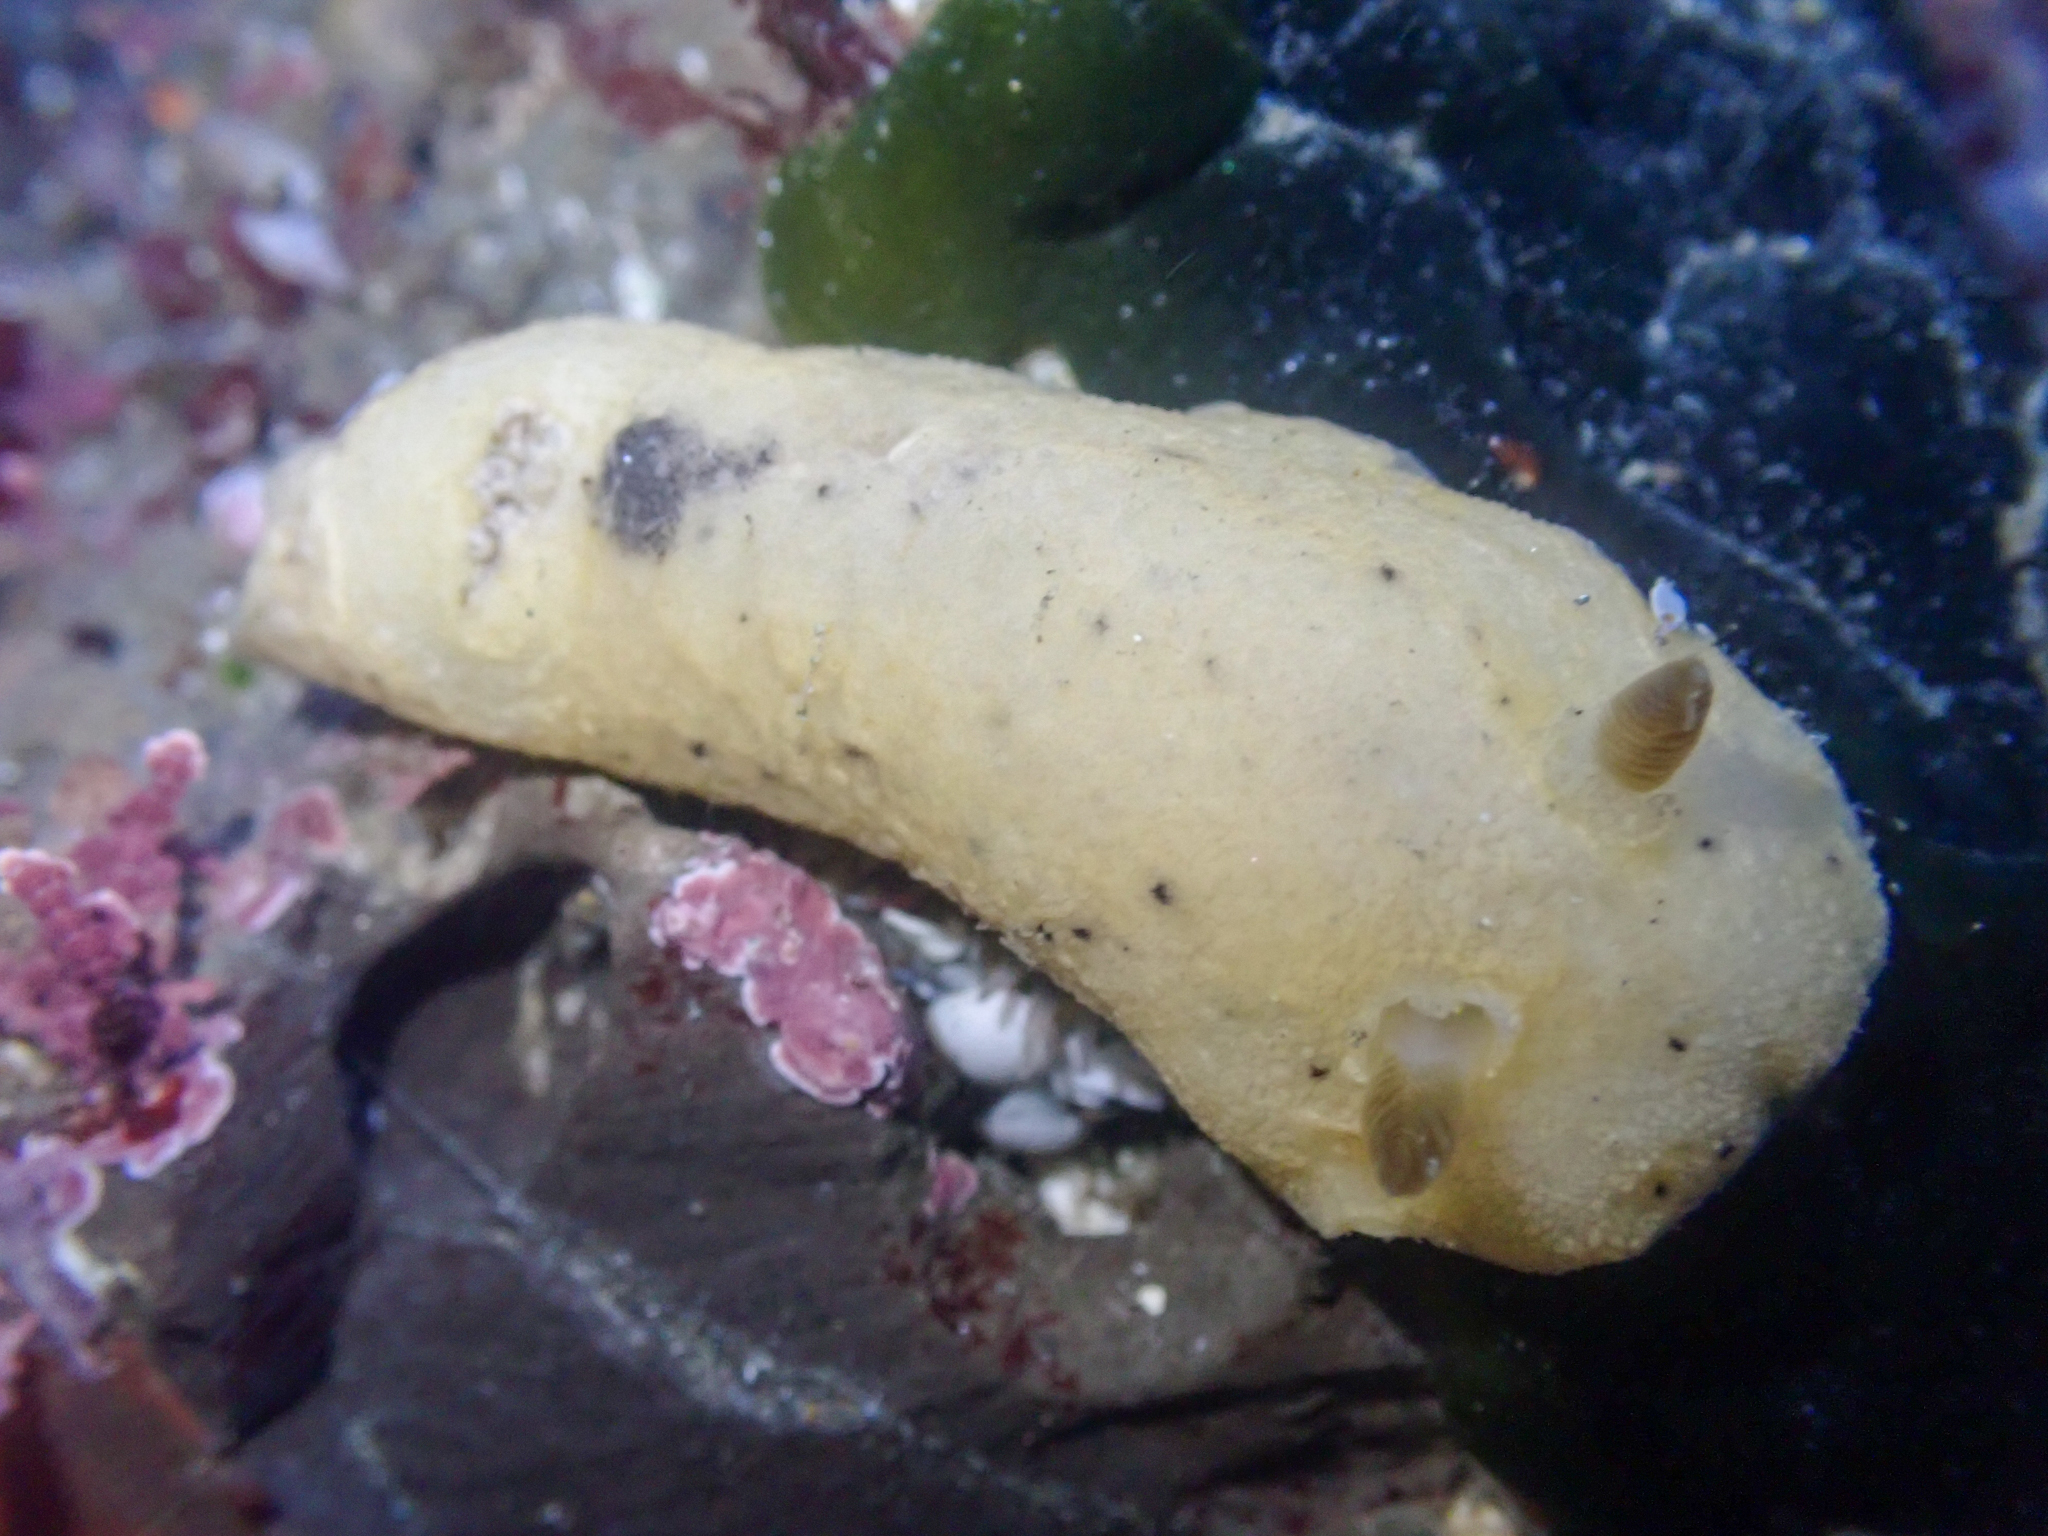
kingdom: Animalia
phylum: Mollusca
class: Gastropoda
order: Nudibranchia
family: Discodorididae
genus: Geitodoris
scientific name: Geitodoris heathi
